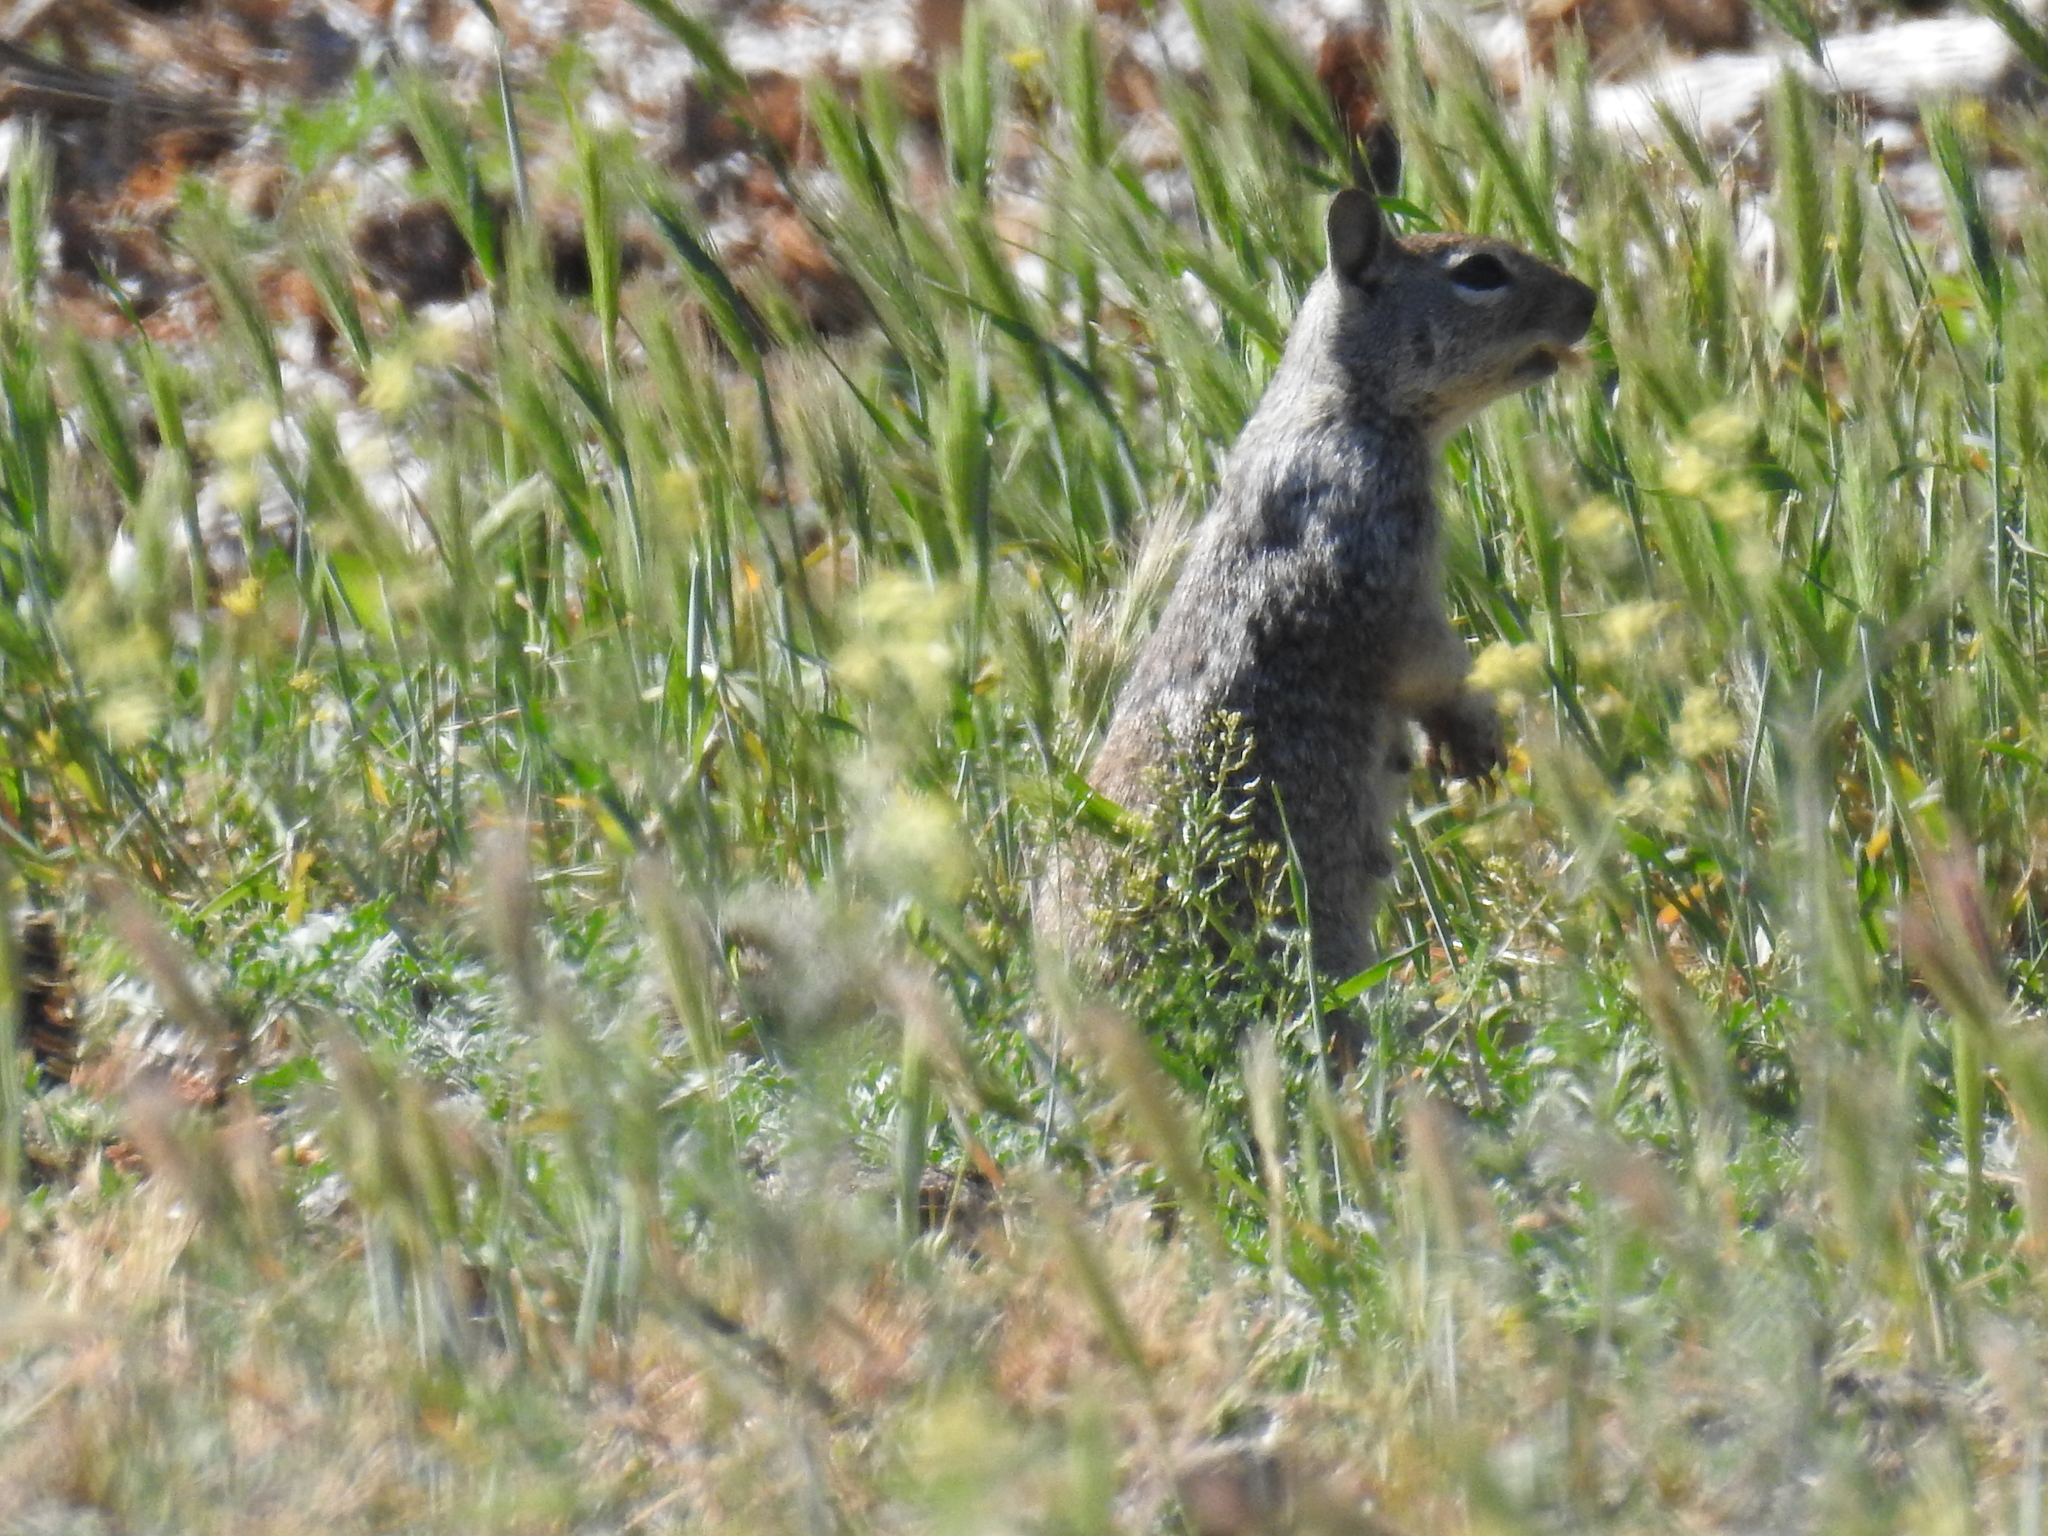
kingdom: Animalia
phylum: Chordata
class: Mammalia
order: Rodentia
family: Sciuridae
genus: Otospermophilus
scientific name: Otospermophilus beecheyi
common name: California ground squirrel
